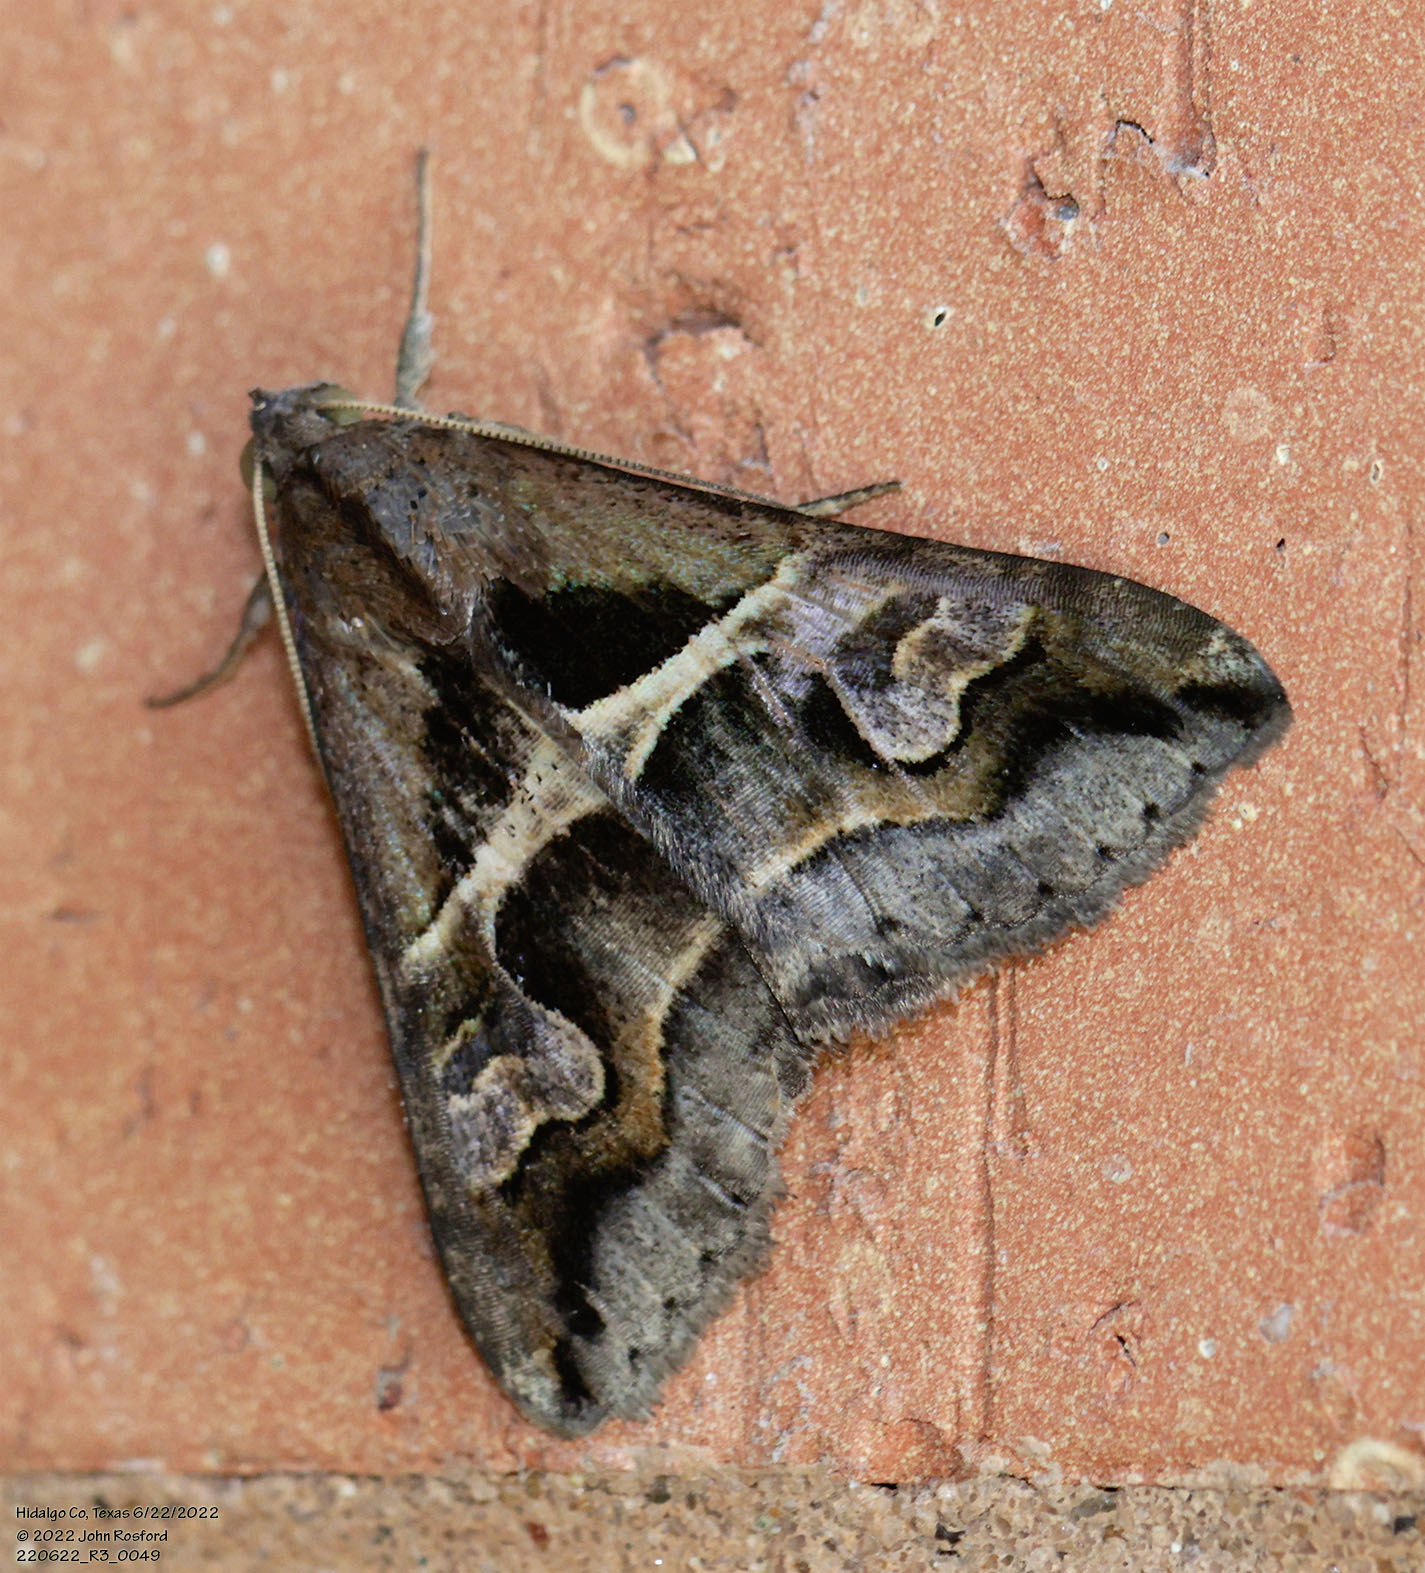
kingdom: Animalia
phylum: Arthropoda
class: Insecta
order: Lepidoptera
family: Erebidae
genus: Melipotis
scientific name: Melipotis cellaris
